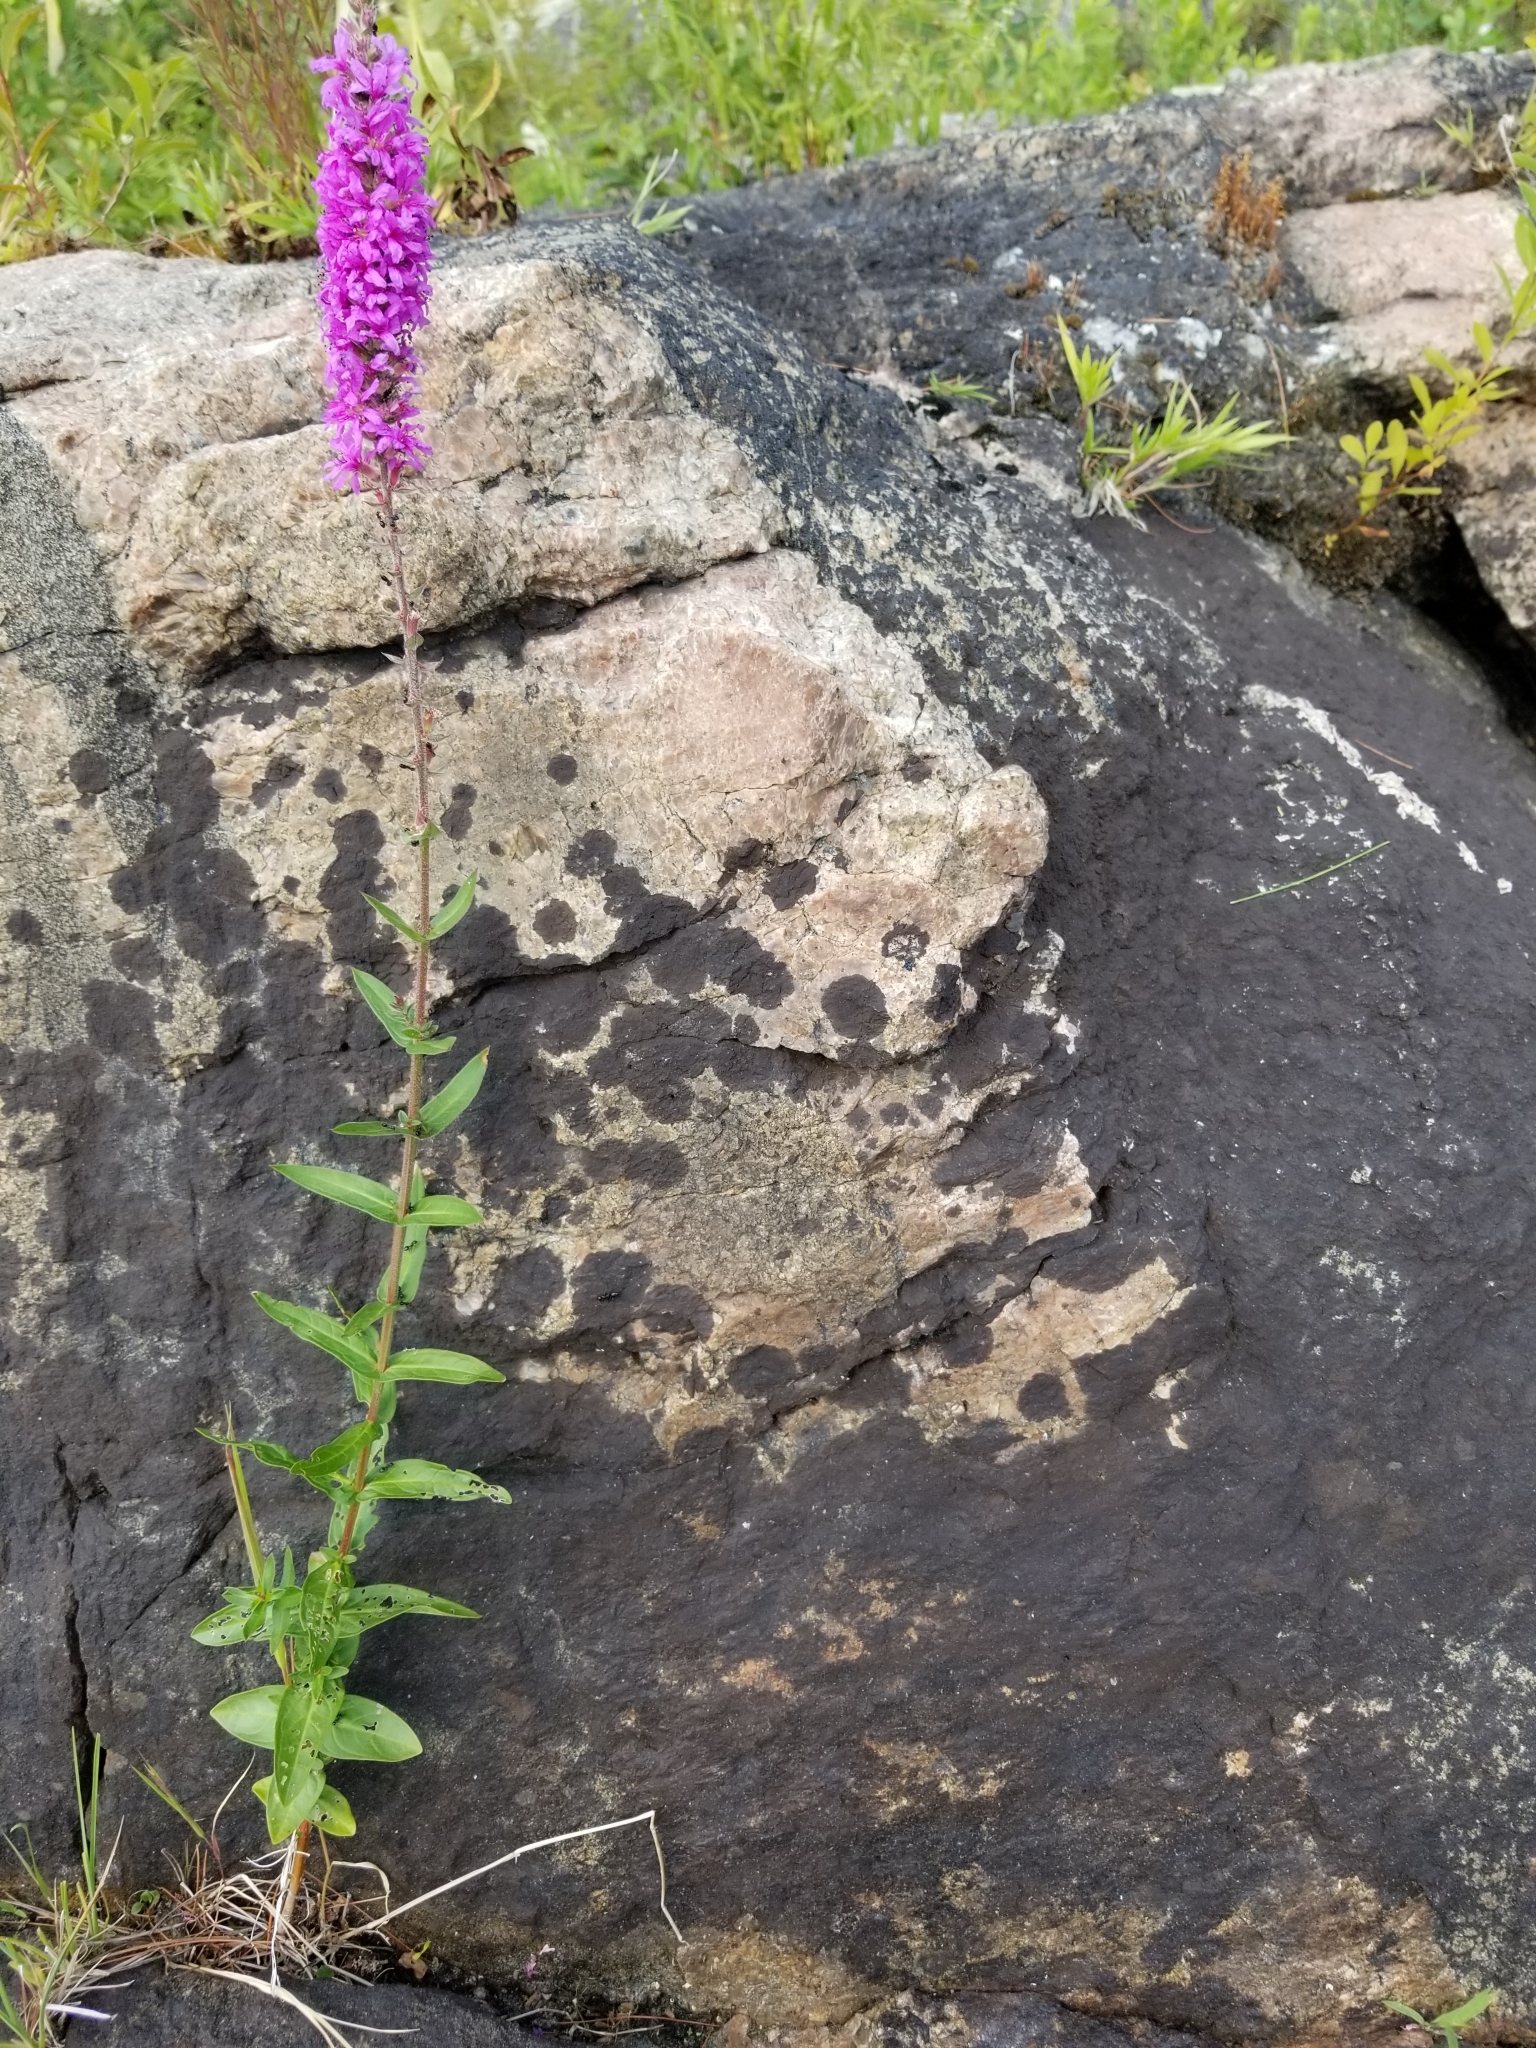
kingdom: Plantae
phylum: Tracheophyta
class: Magnoliopsida
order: Myrtales
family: Lythraceae
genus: Lythrum
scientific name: Lythrum salicaria
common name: Purple loosestrife
